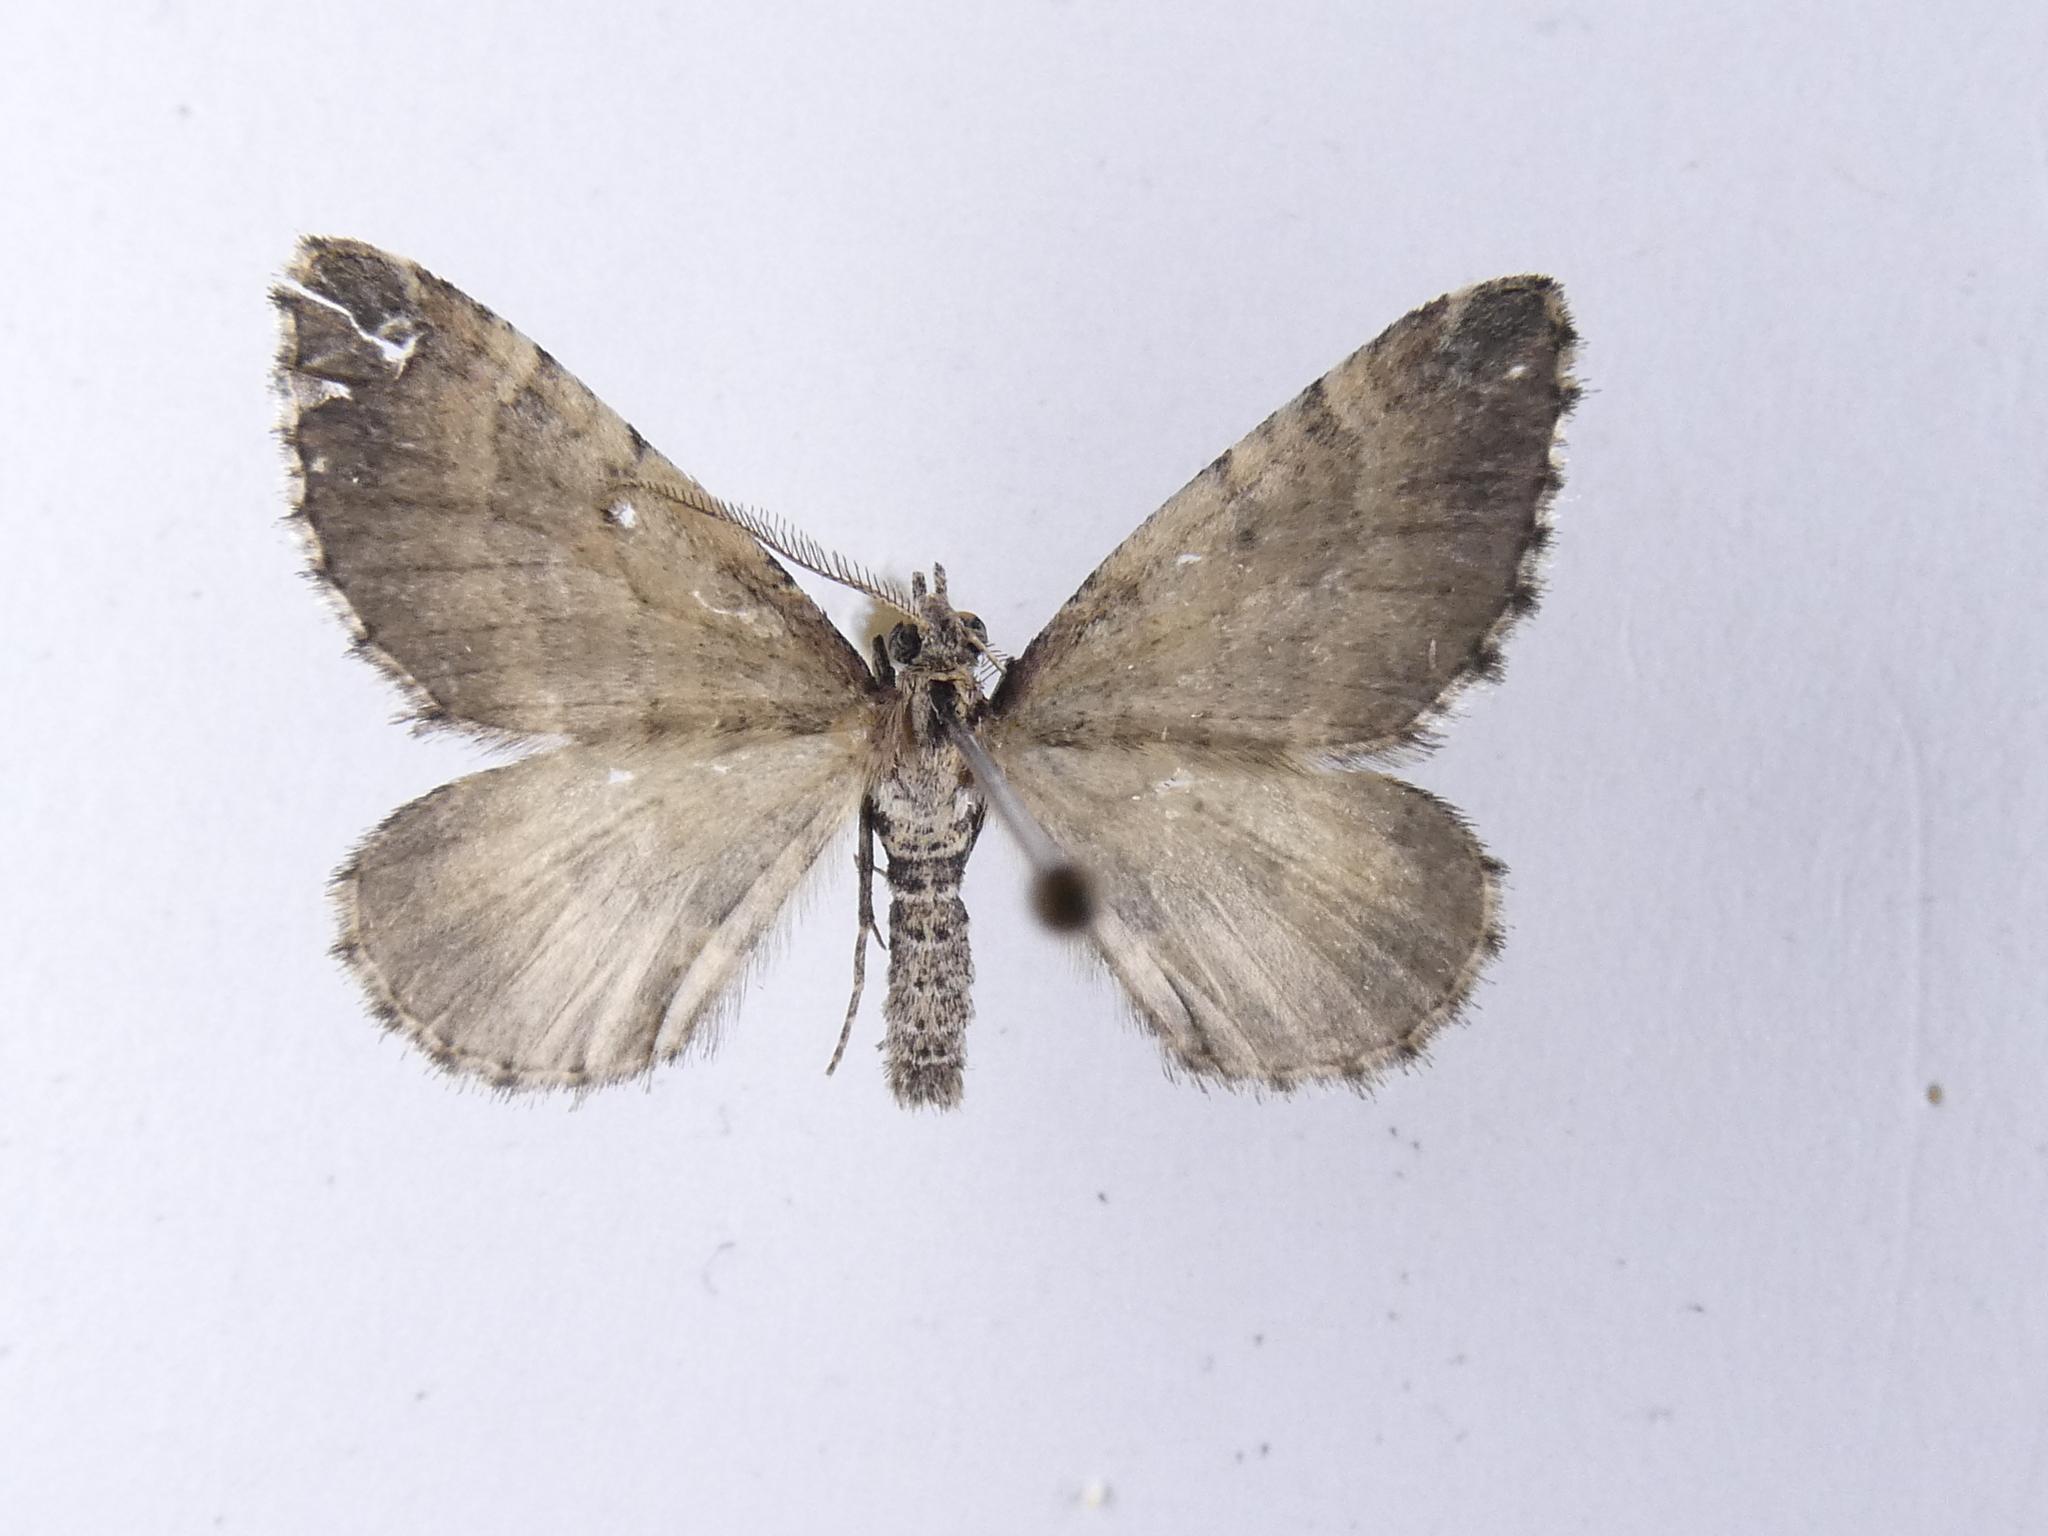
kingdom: Animalia
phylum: Arthropoda
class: Insecta
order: Lepidoptera
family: Geometridae
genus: Asaphodes
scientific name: Asaphodes aegrota
